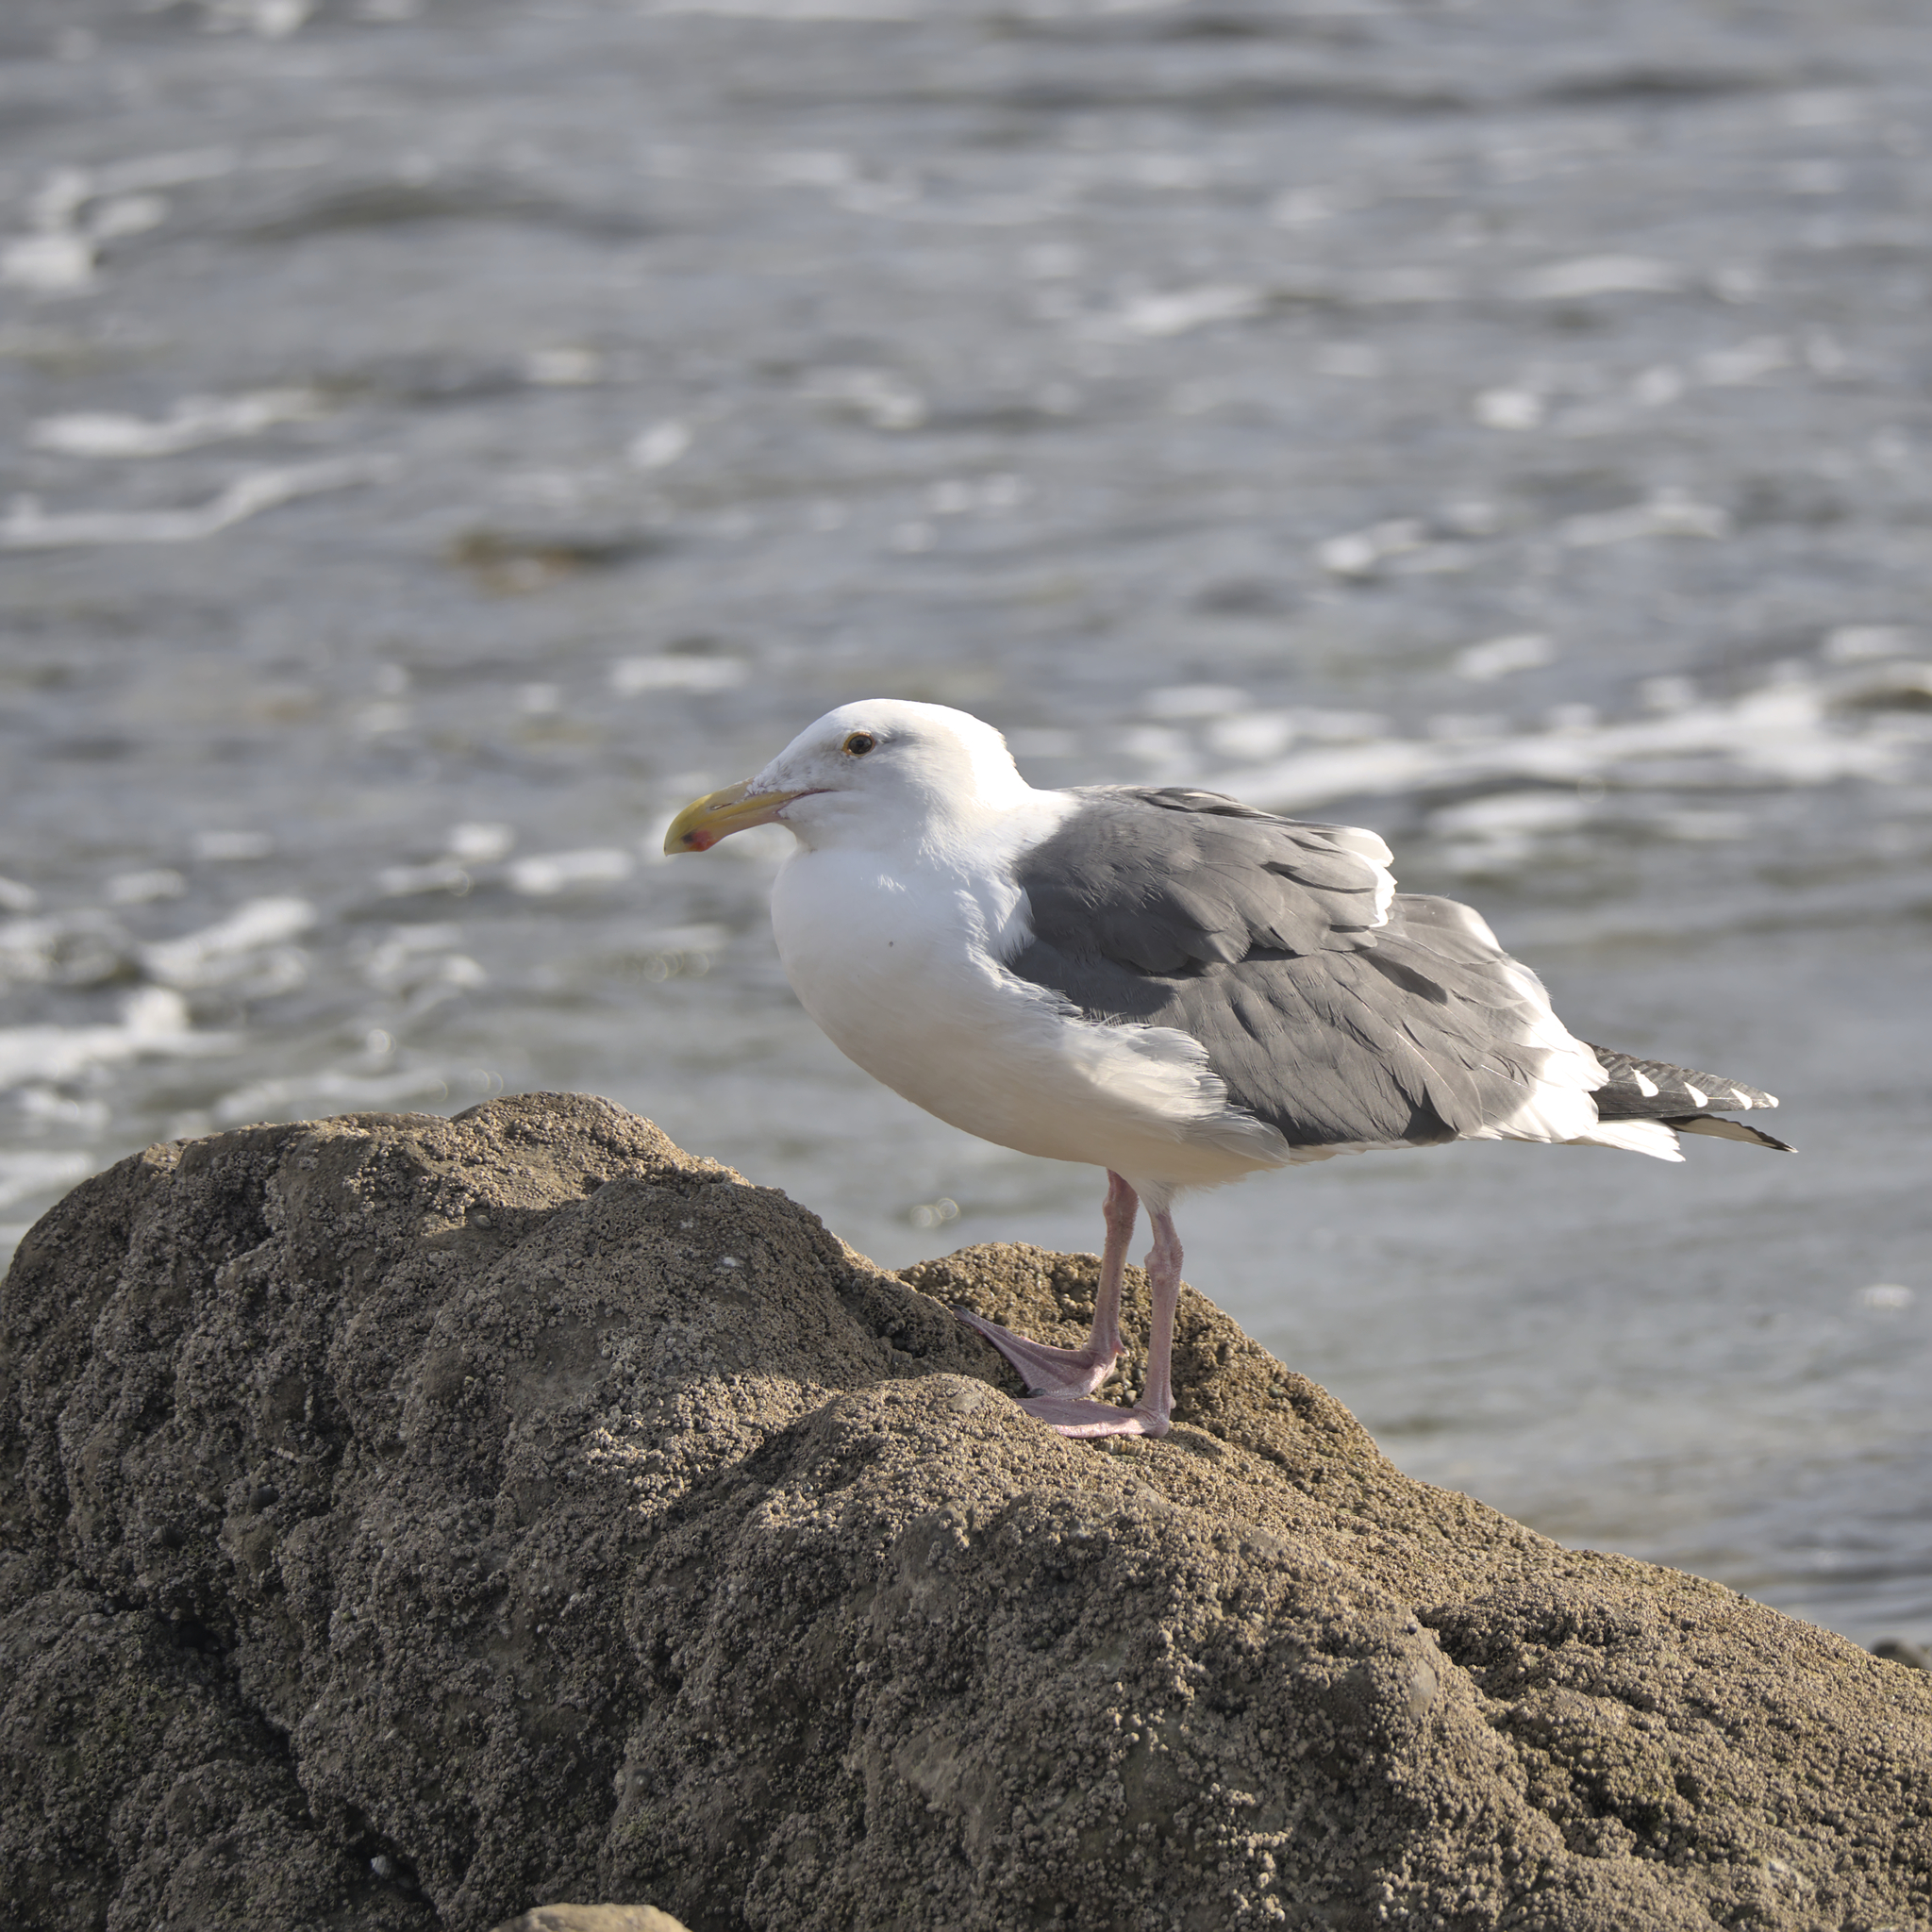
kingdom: Animalia
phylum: Chordata
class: Aves
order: Charadriiformes
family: Laridae
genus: Larus
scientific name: Larus occidentalis
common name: Western gull
